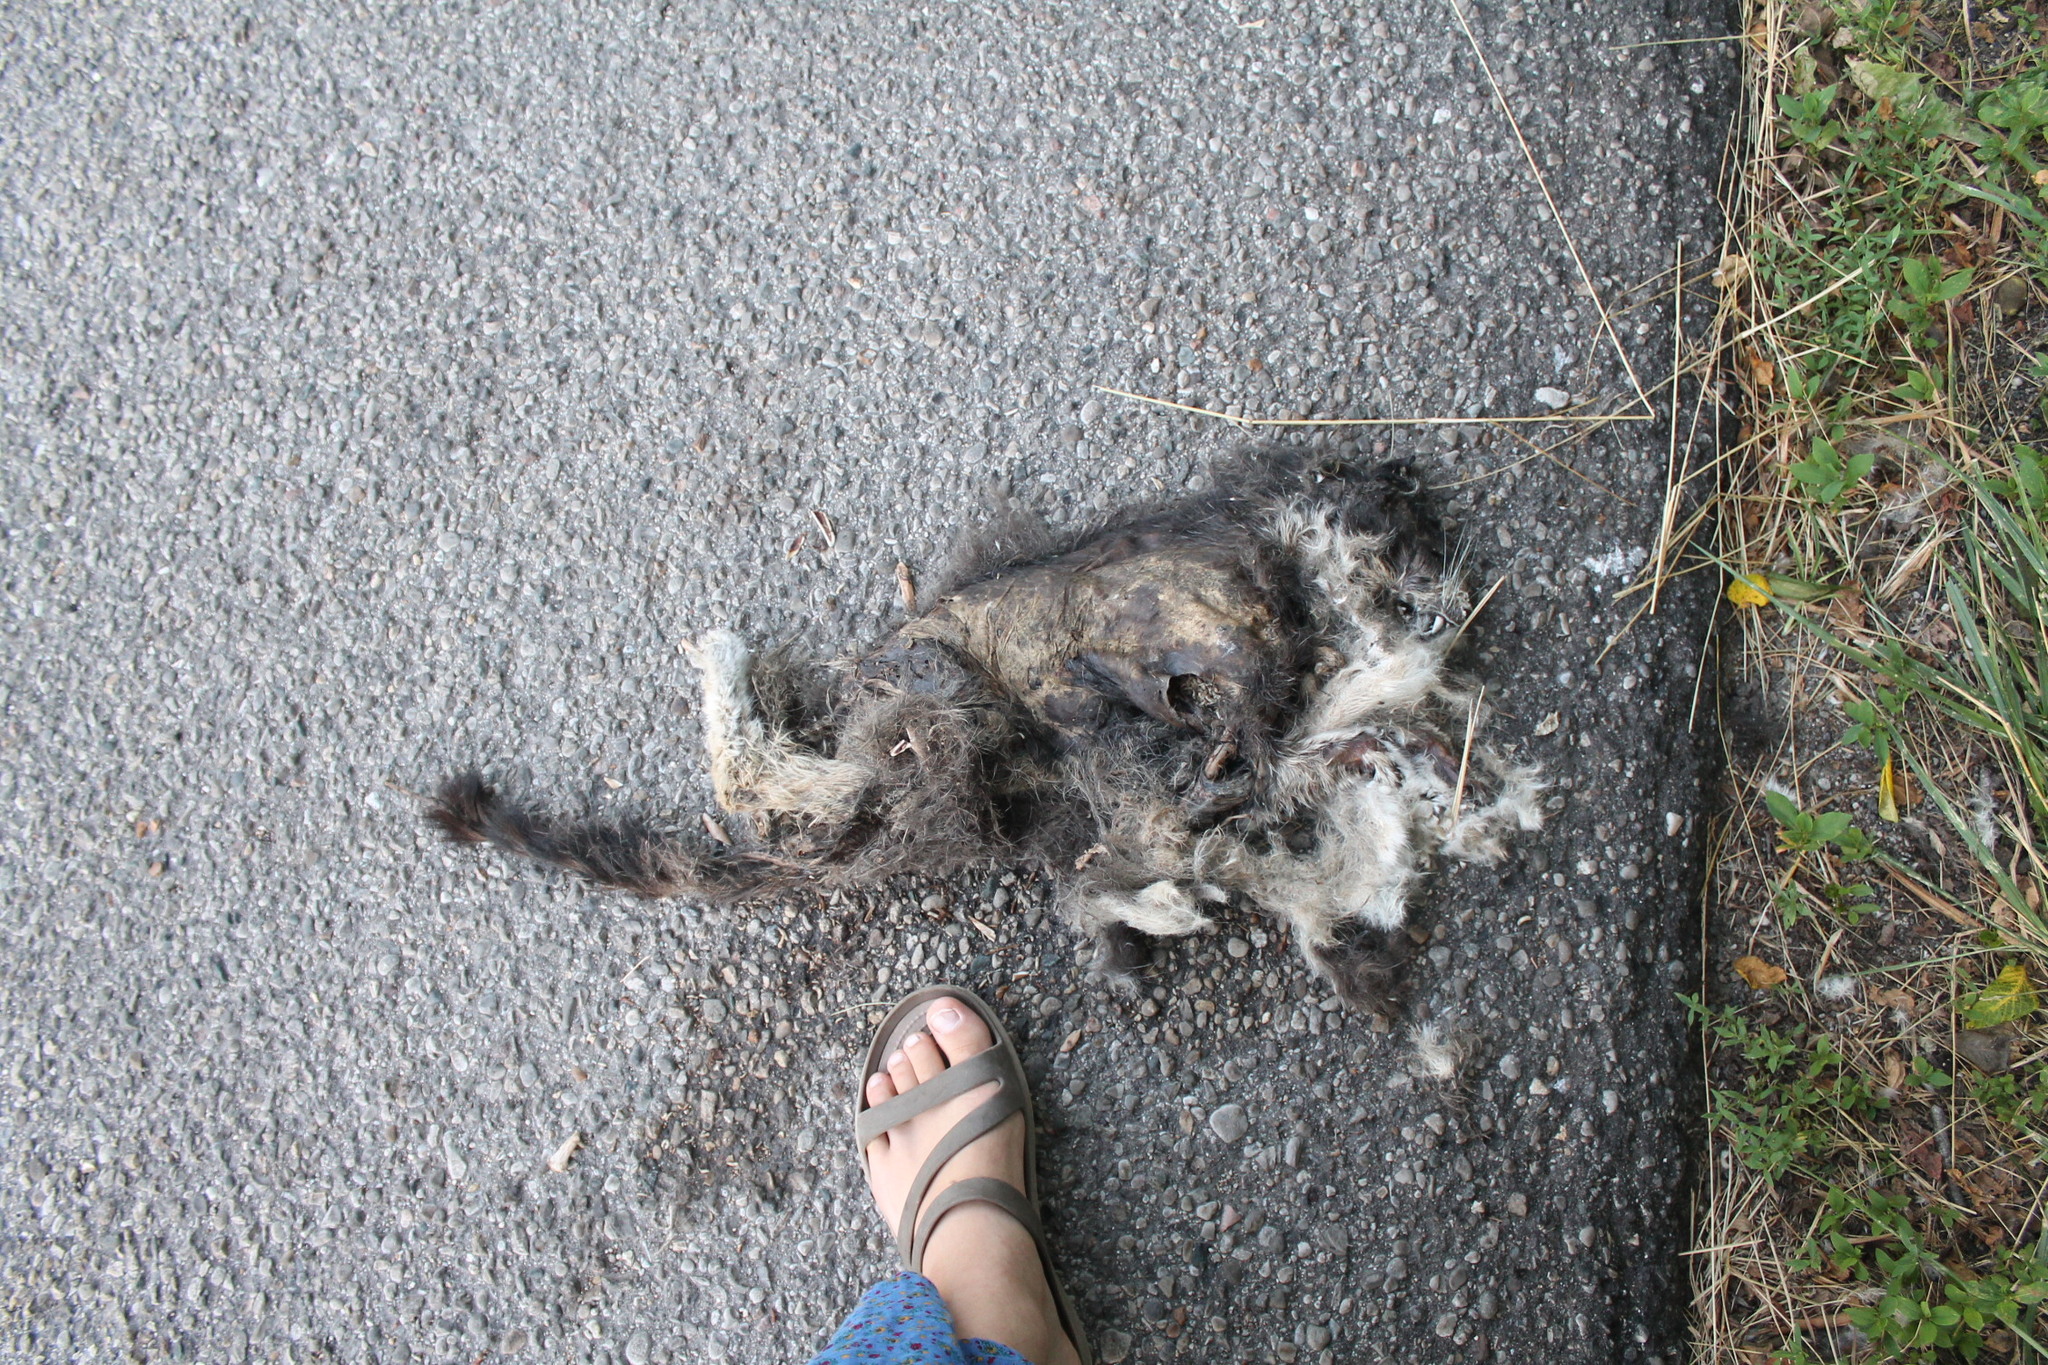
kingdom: Animalia
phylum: Chordata
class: Mammalia
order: Carnivora
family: Mustelidae
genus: Lontra
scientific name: Lontra canadensis
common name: North american river otter
